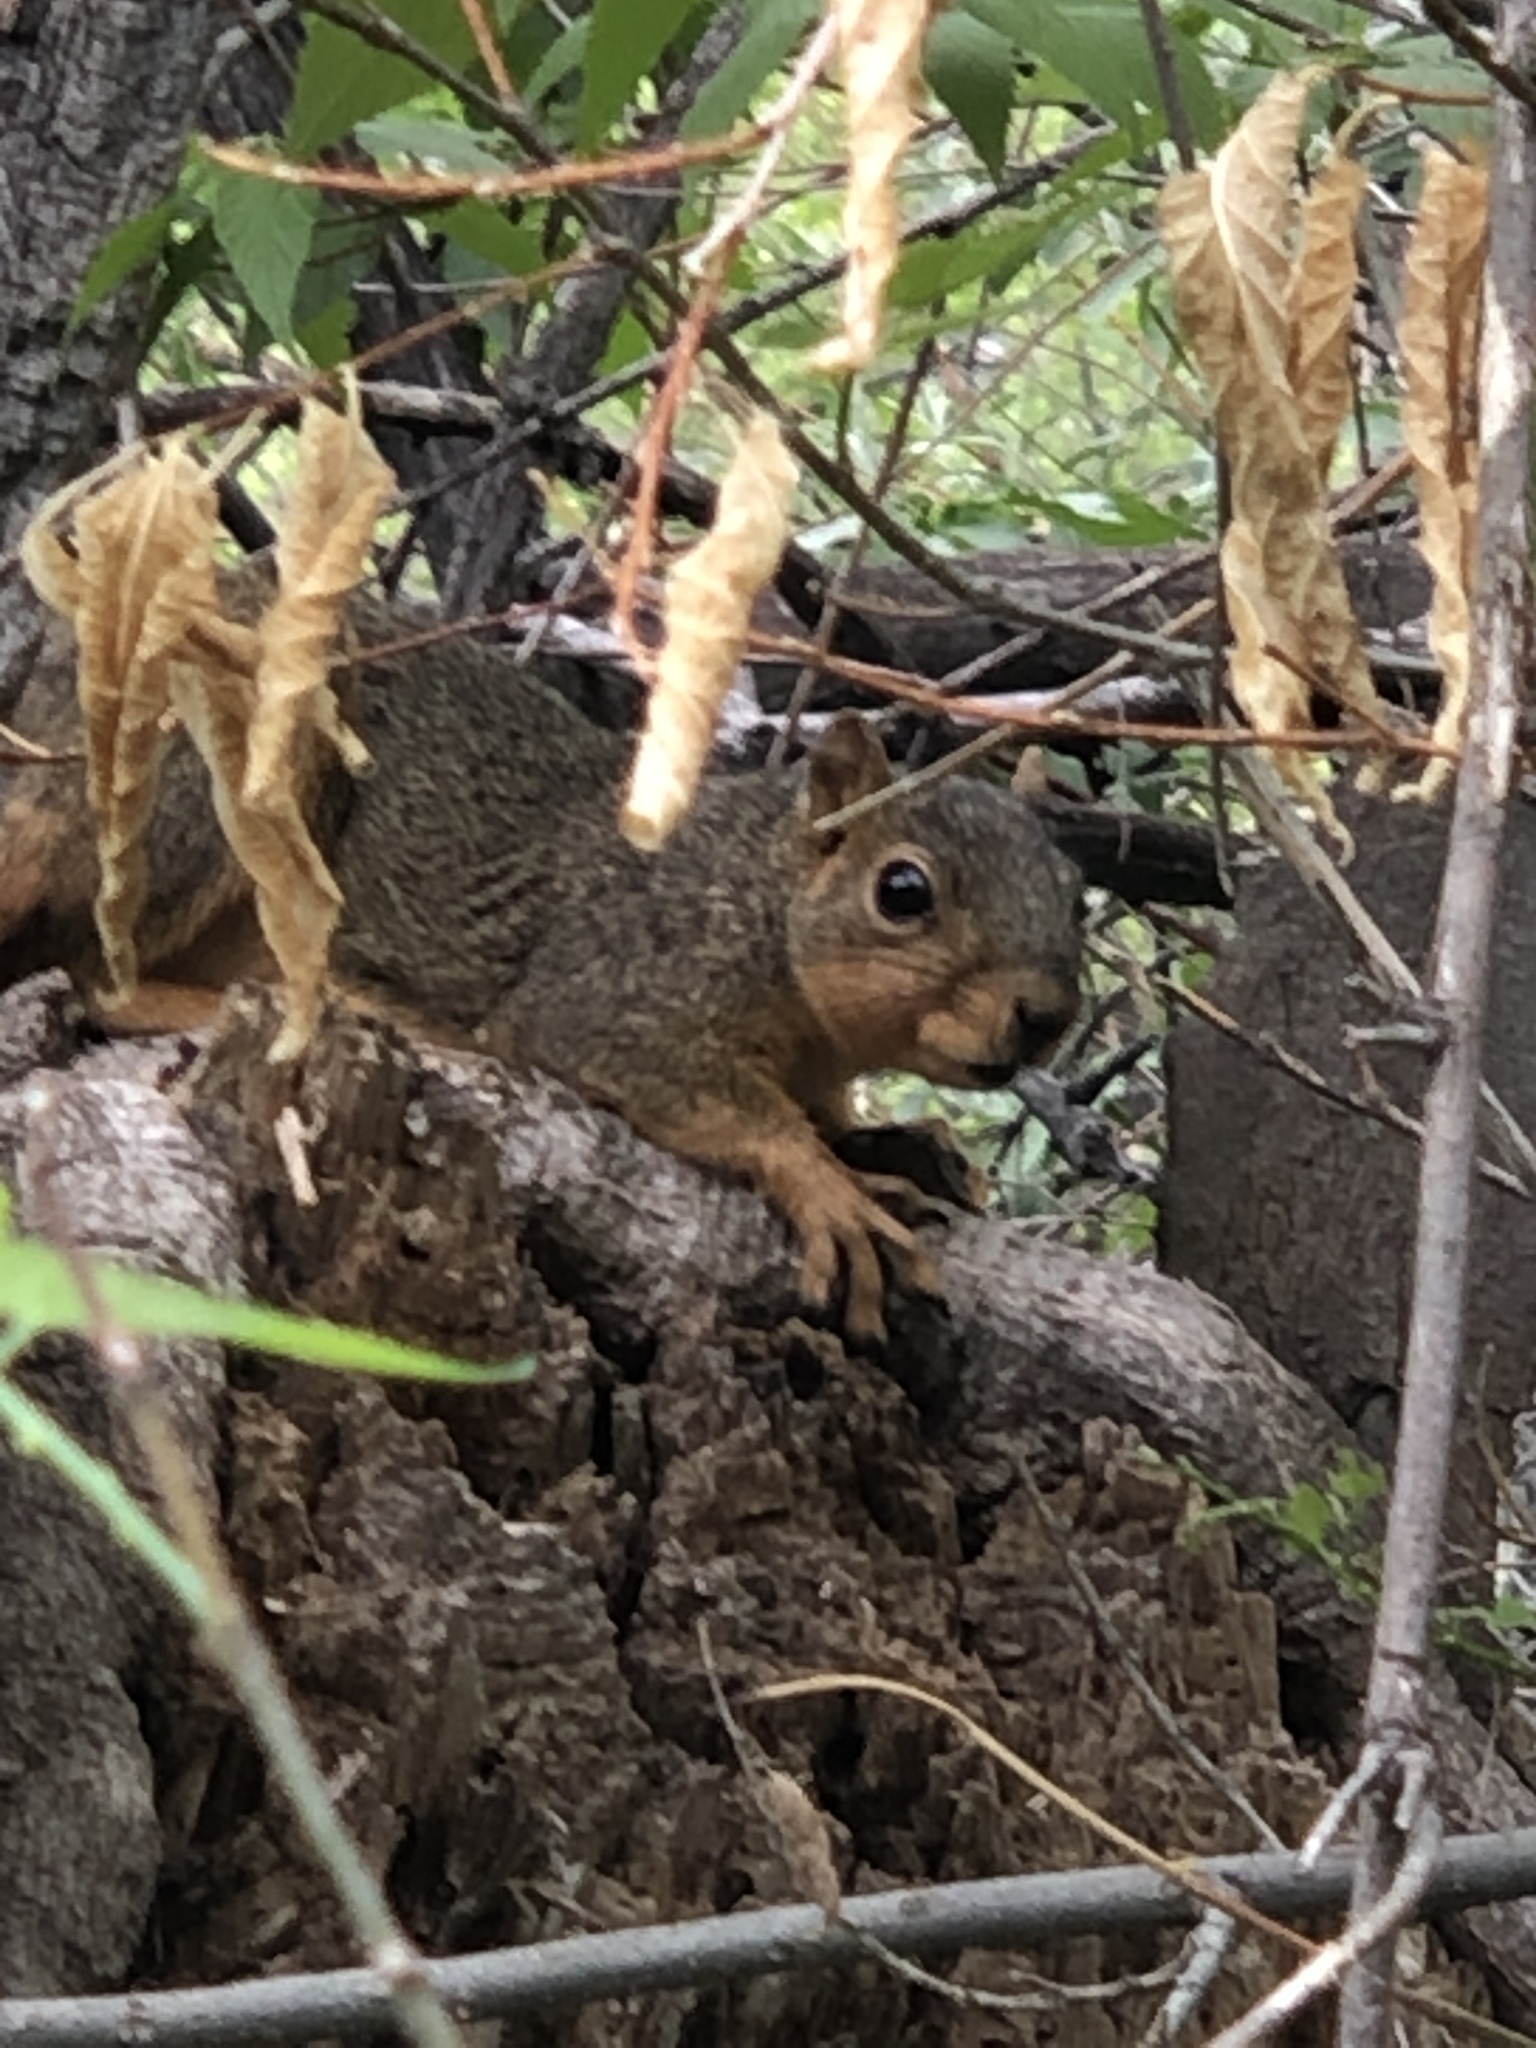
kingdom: Animalia
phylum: Chordata
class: Mammalia
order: Rodentia
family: Sciuridae
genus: Sciurus
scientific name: Sciurus niger
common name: Fox squirrel
